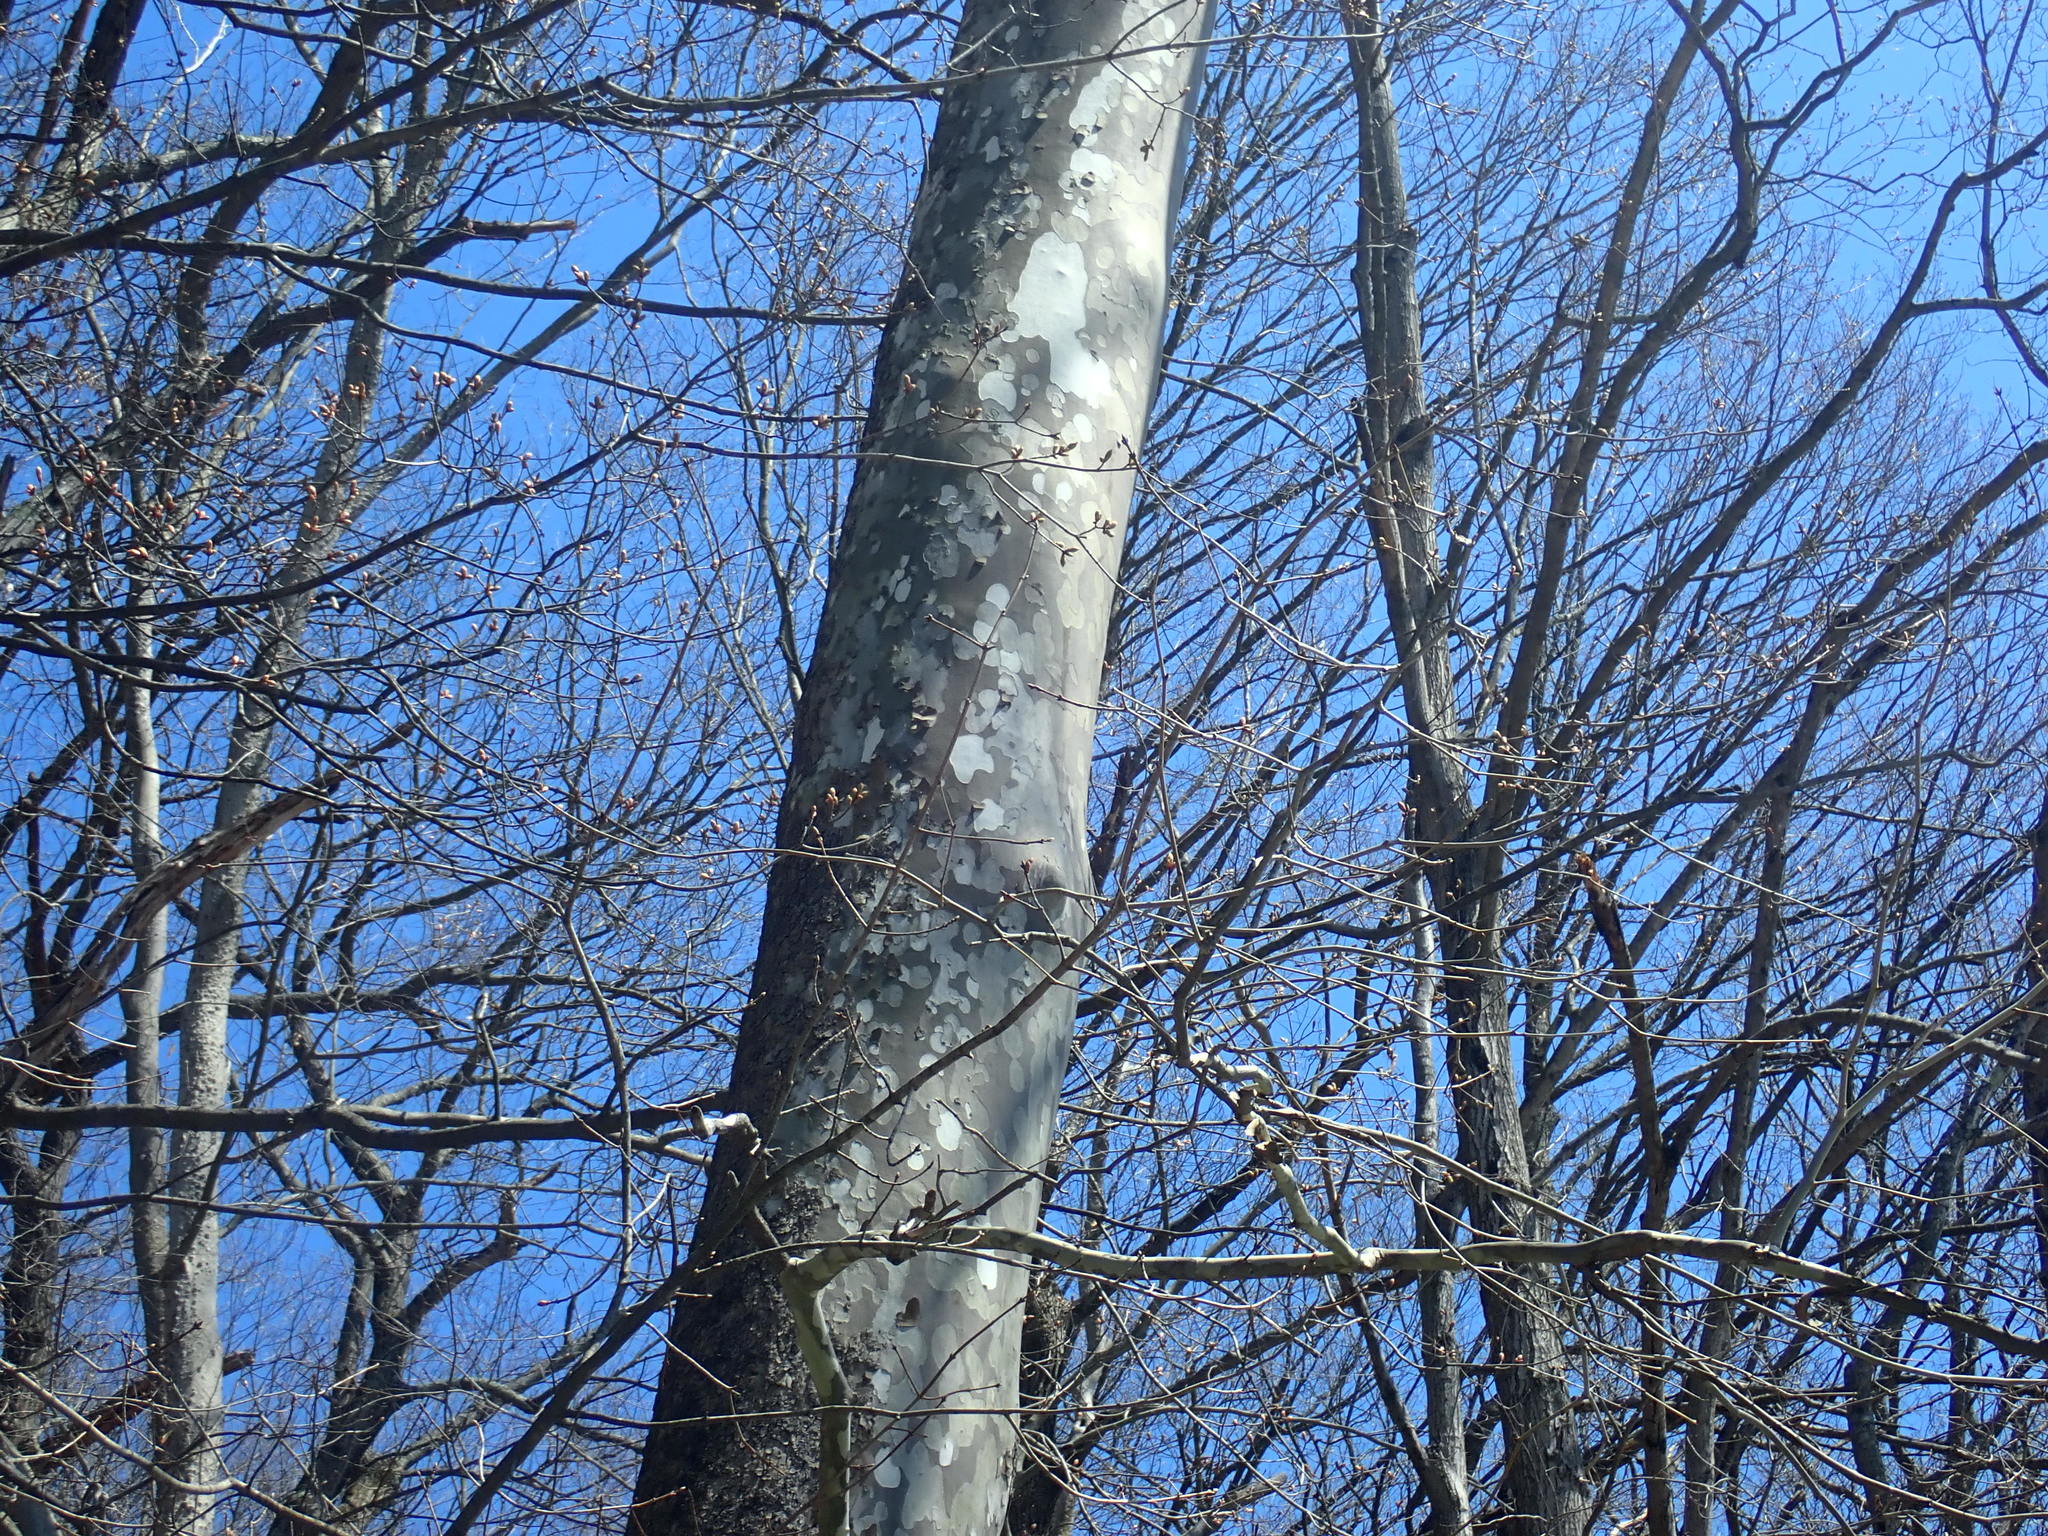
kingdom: Plantae
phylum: Tracheophyta
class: Magnoliopsida
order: Proteales
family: Platanaceae
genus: Platanus
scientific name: Platanus occidentalis
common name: American sycamore
